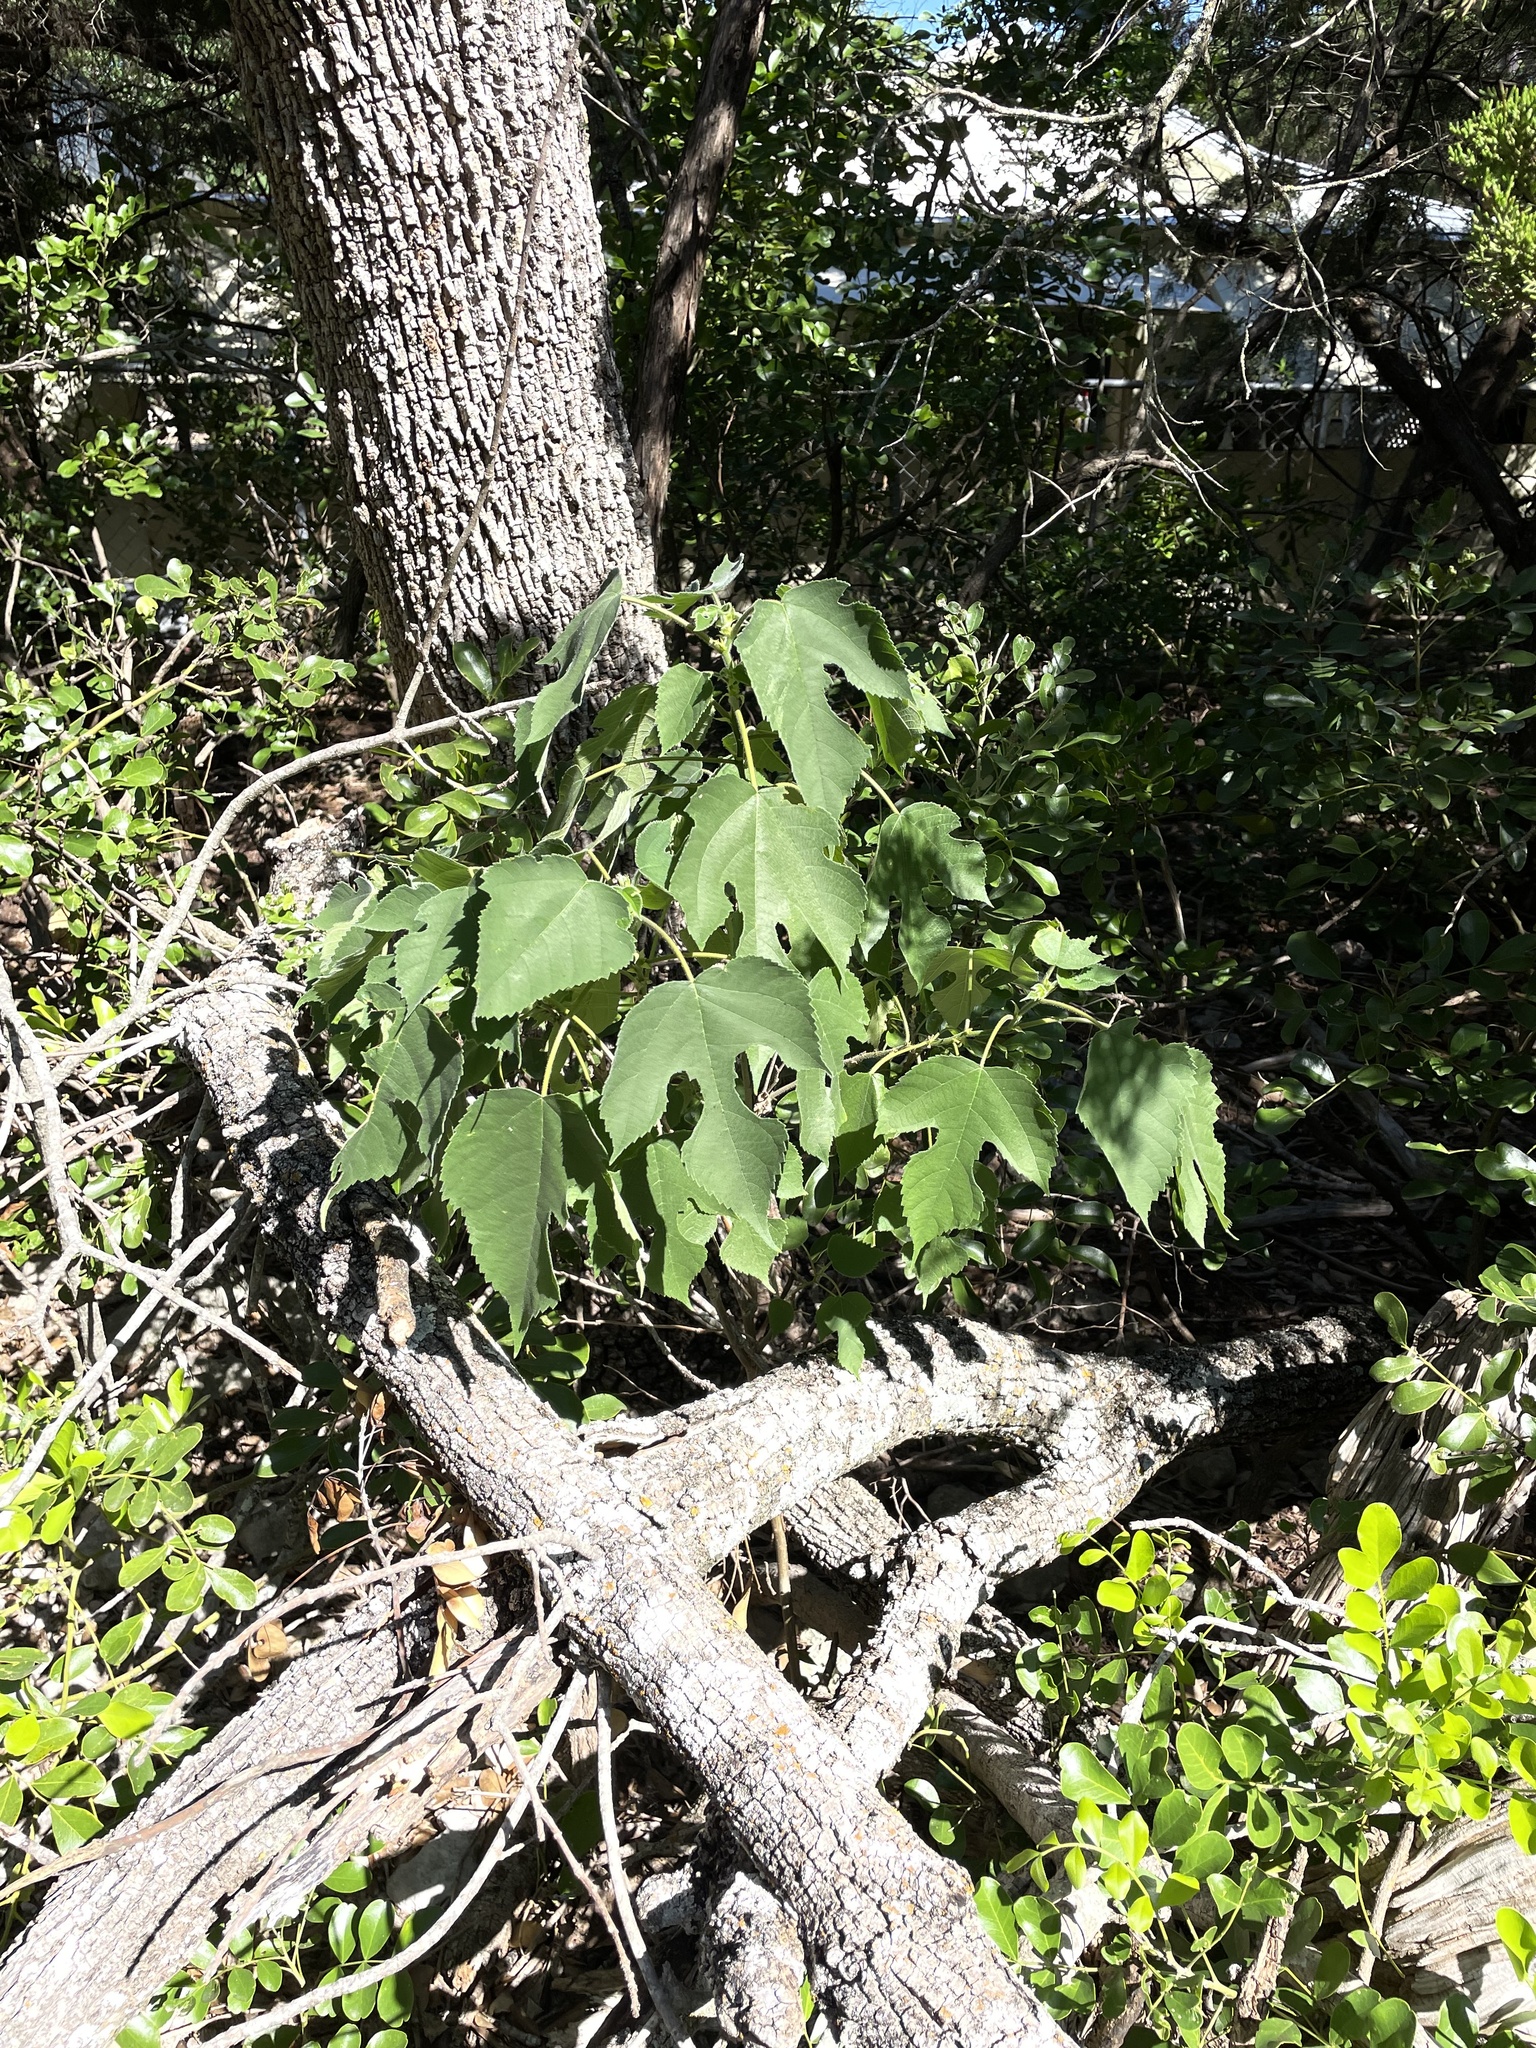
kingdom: Plantae
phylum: Tracheophyta
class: Magnoliopsida
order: Rosales
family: Moraceae
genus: Broussonetia
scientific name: Broussonetia papyrifera
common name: Paper mulberry
